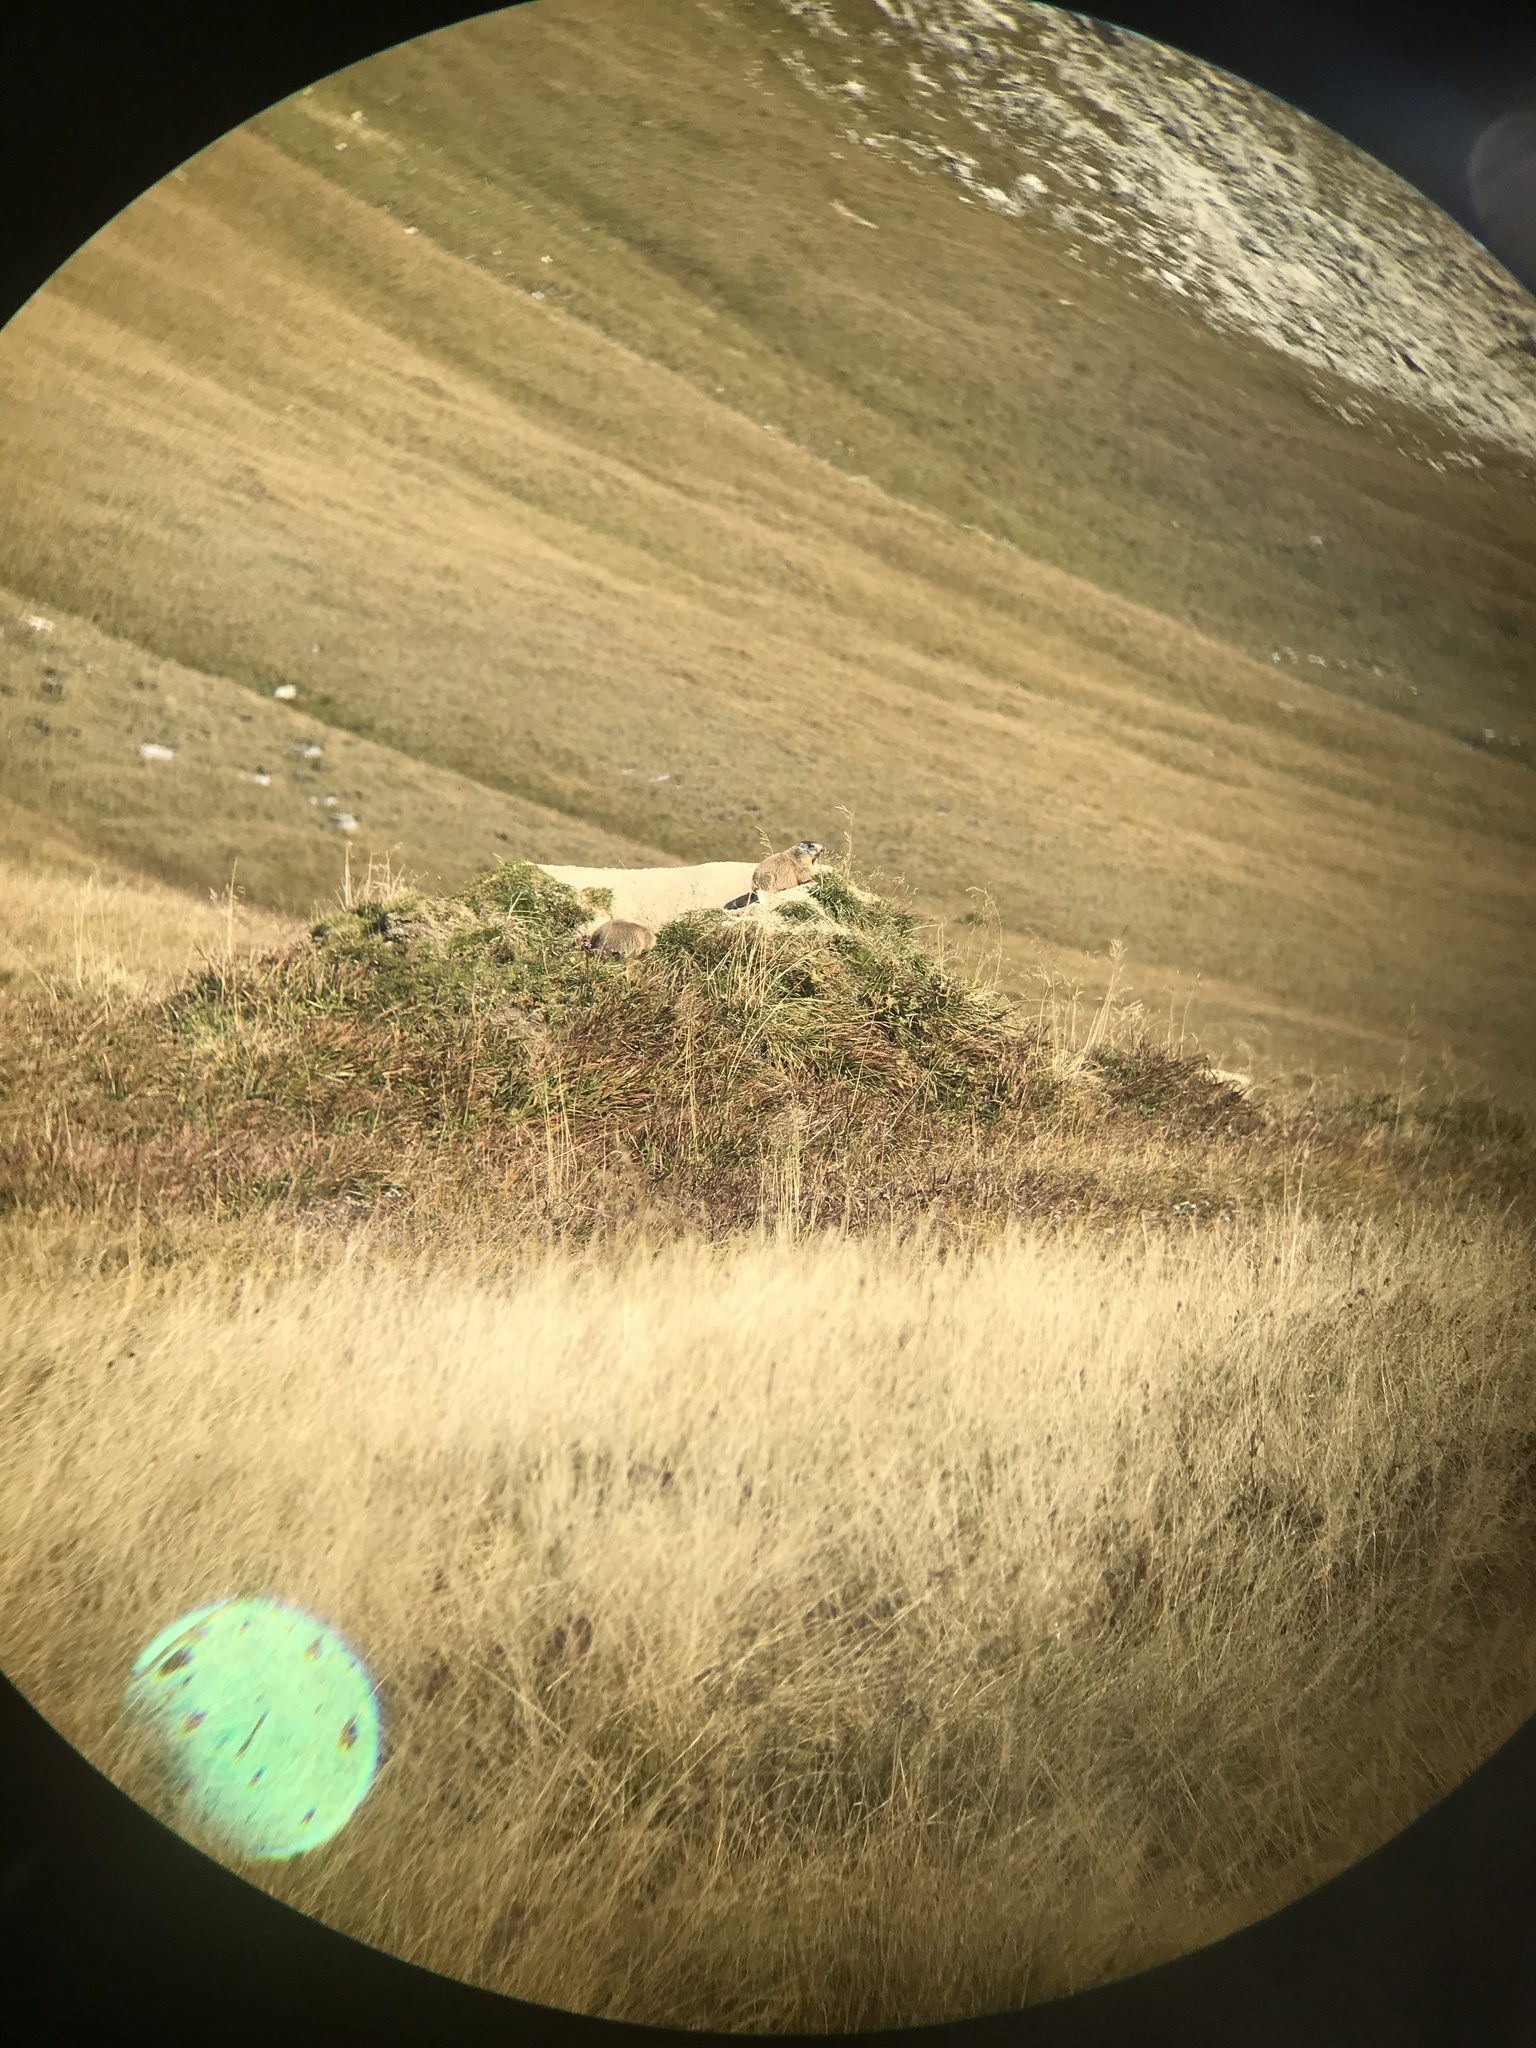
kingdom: Animalia
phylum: Chordata
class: Mammalia
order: Rodentia
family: Sciuridae
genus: Marmota
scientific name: Marmota marmota
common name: Alpine marmot
